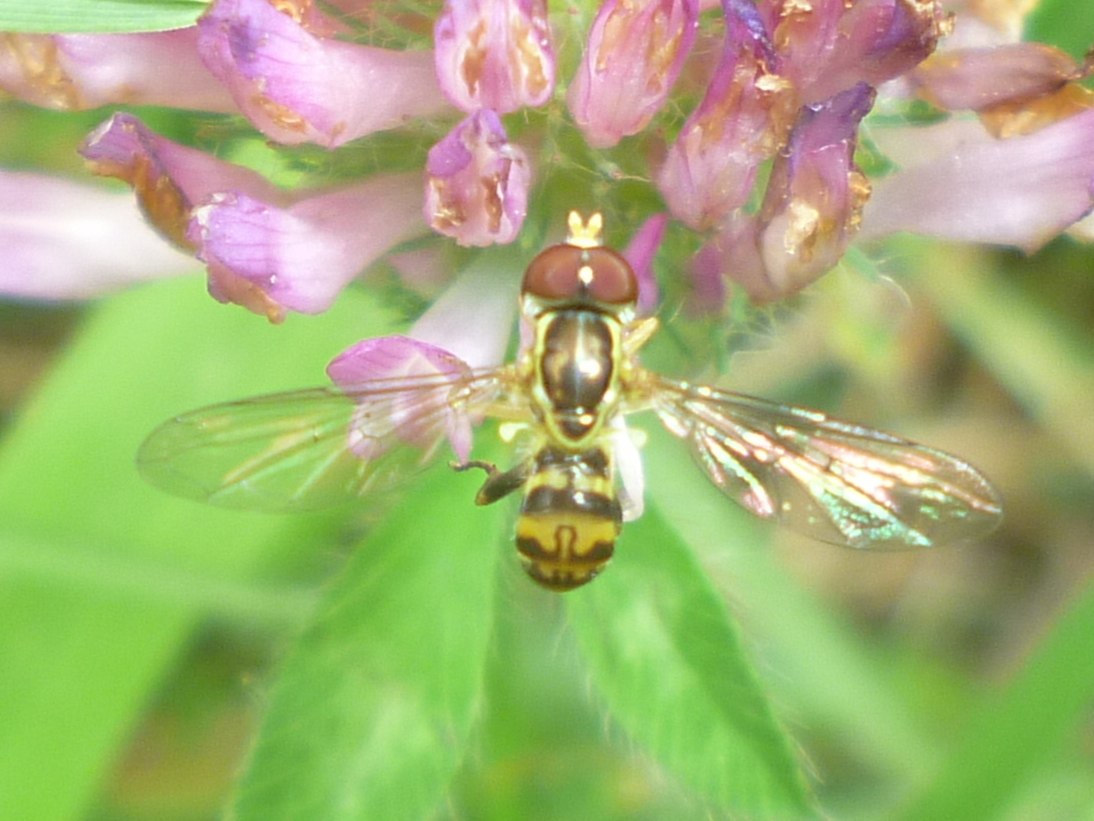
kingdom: Animalia
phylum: Arthropoda
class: Insecta
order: Diptera
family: Syrphidae
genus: Toxomerus
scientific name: Toxomerus geminatus
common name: Eastern calligrapher
